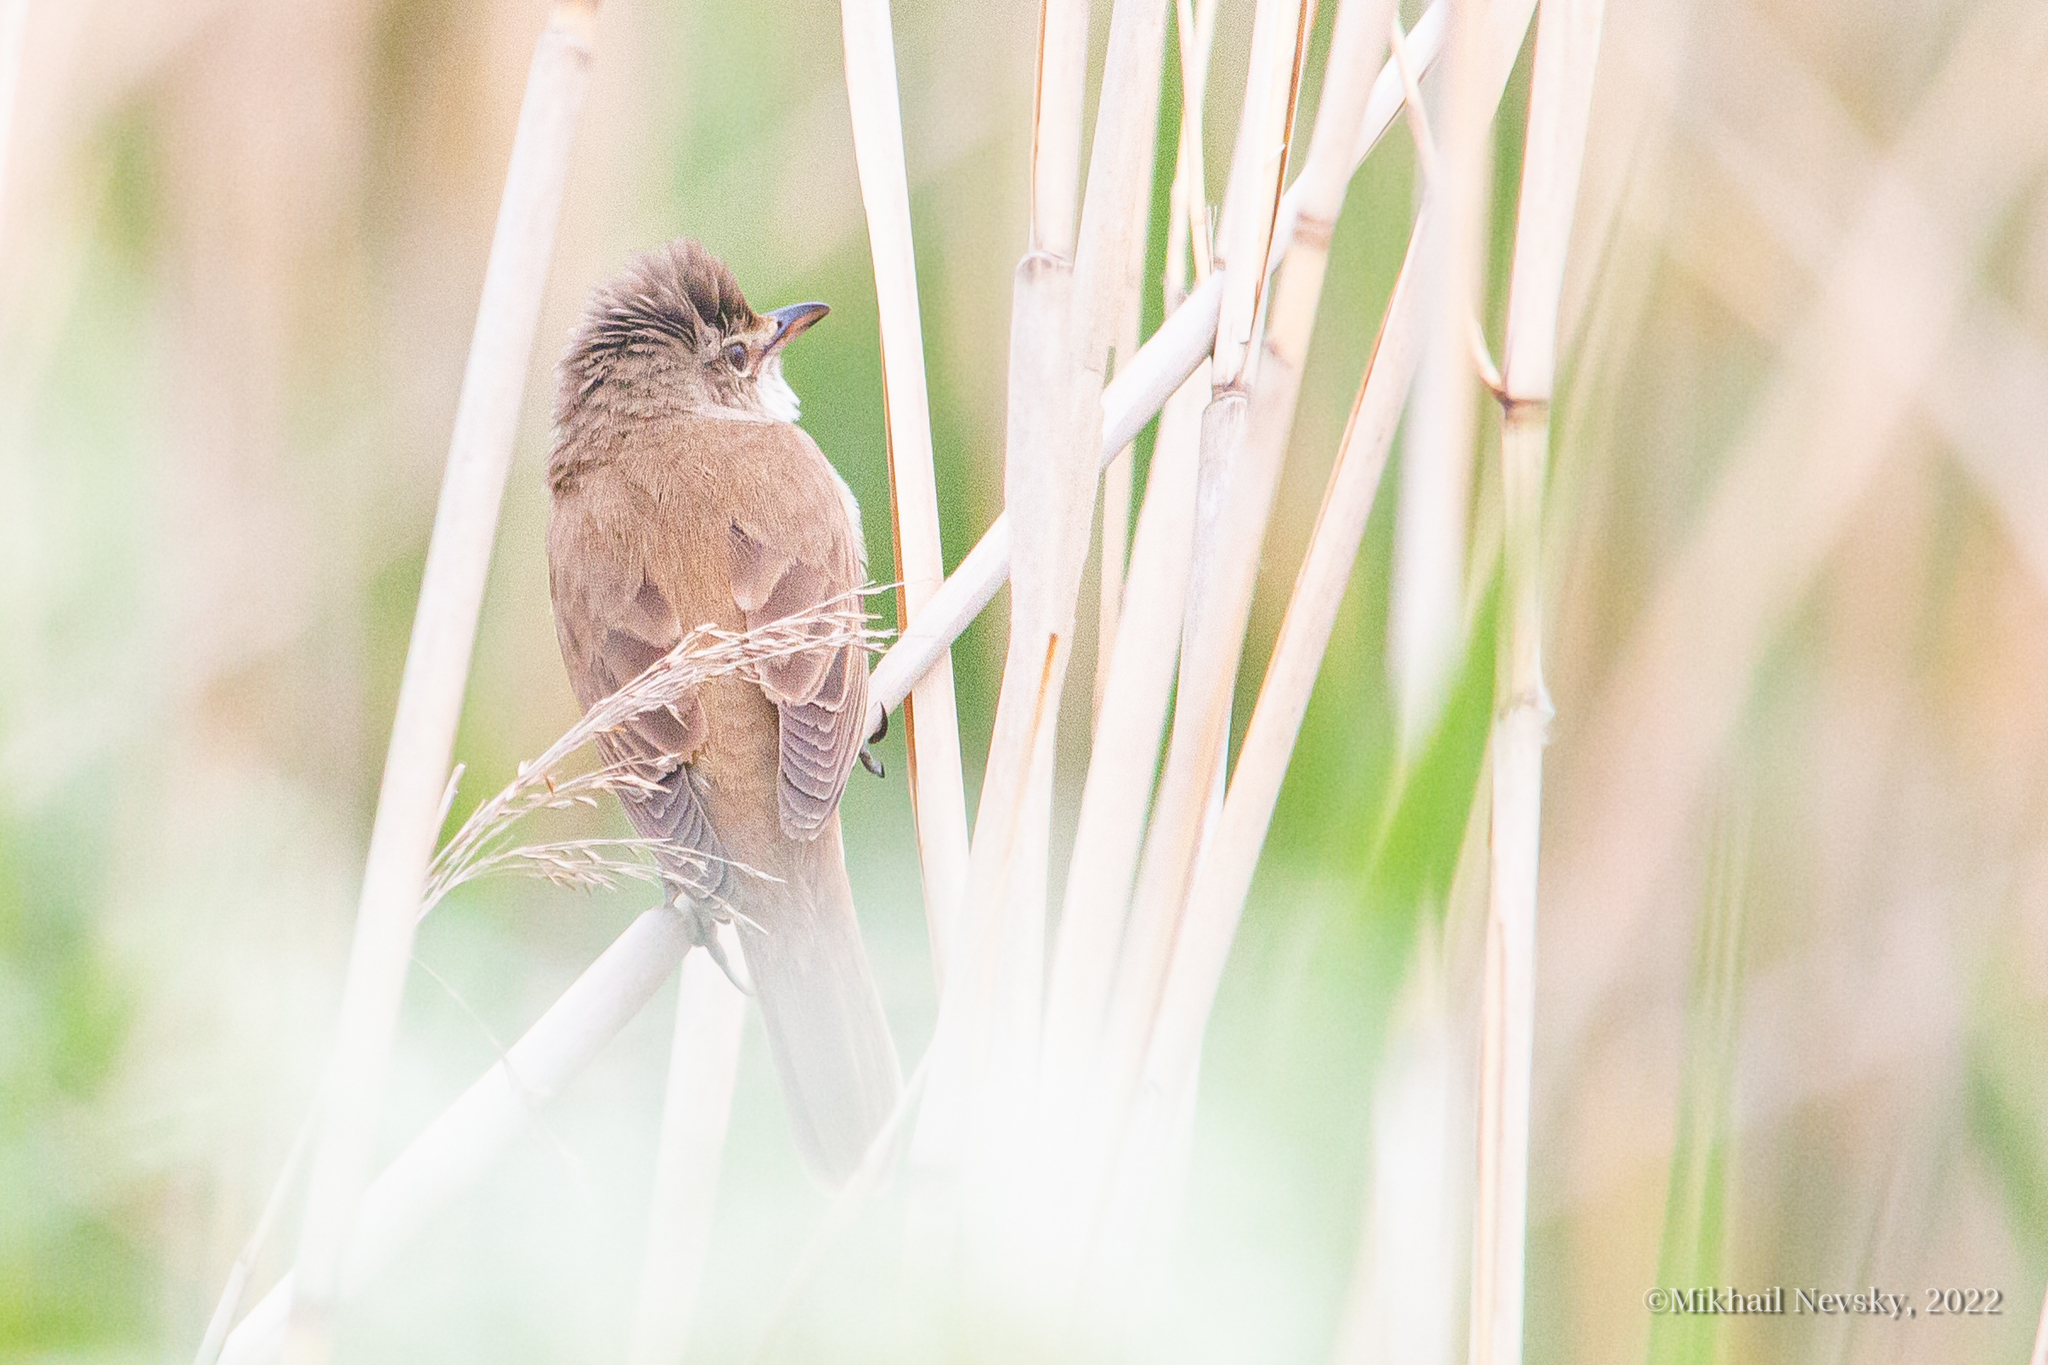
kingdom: Animalia
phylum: Chordata
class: Aves
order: Passeriformes
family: Acrocephalidae
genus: Acrocephalus
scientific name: Acrocephalus arundinaceus
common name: Great reed warbler
